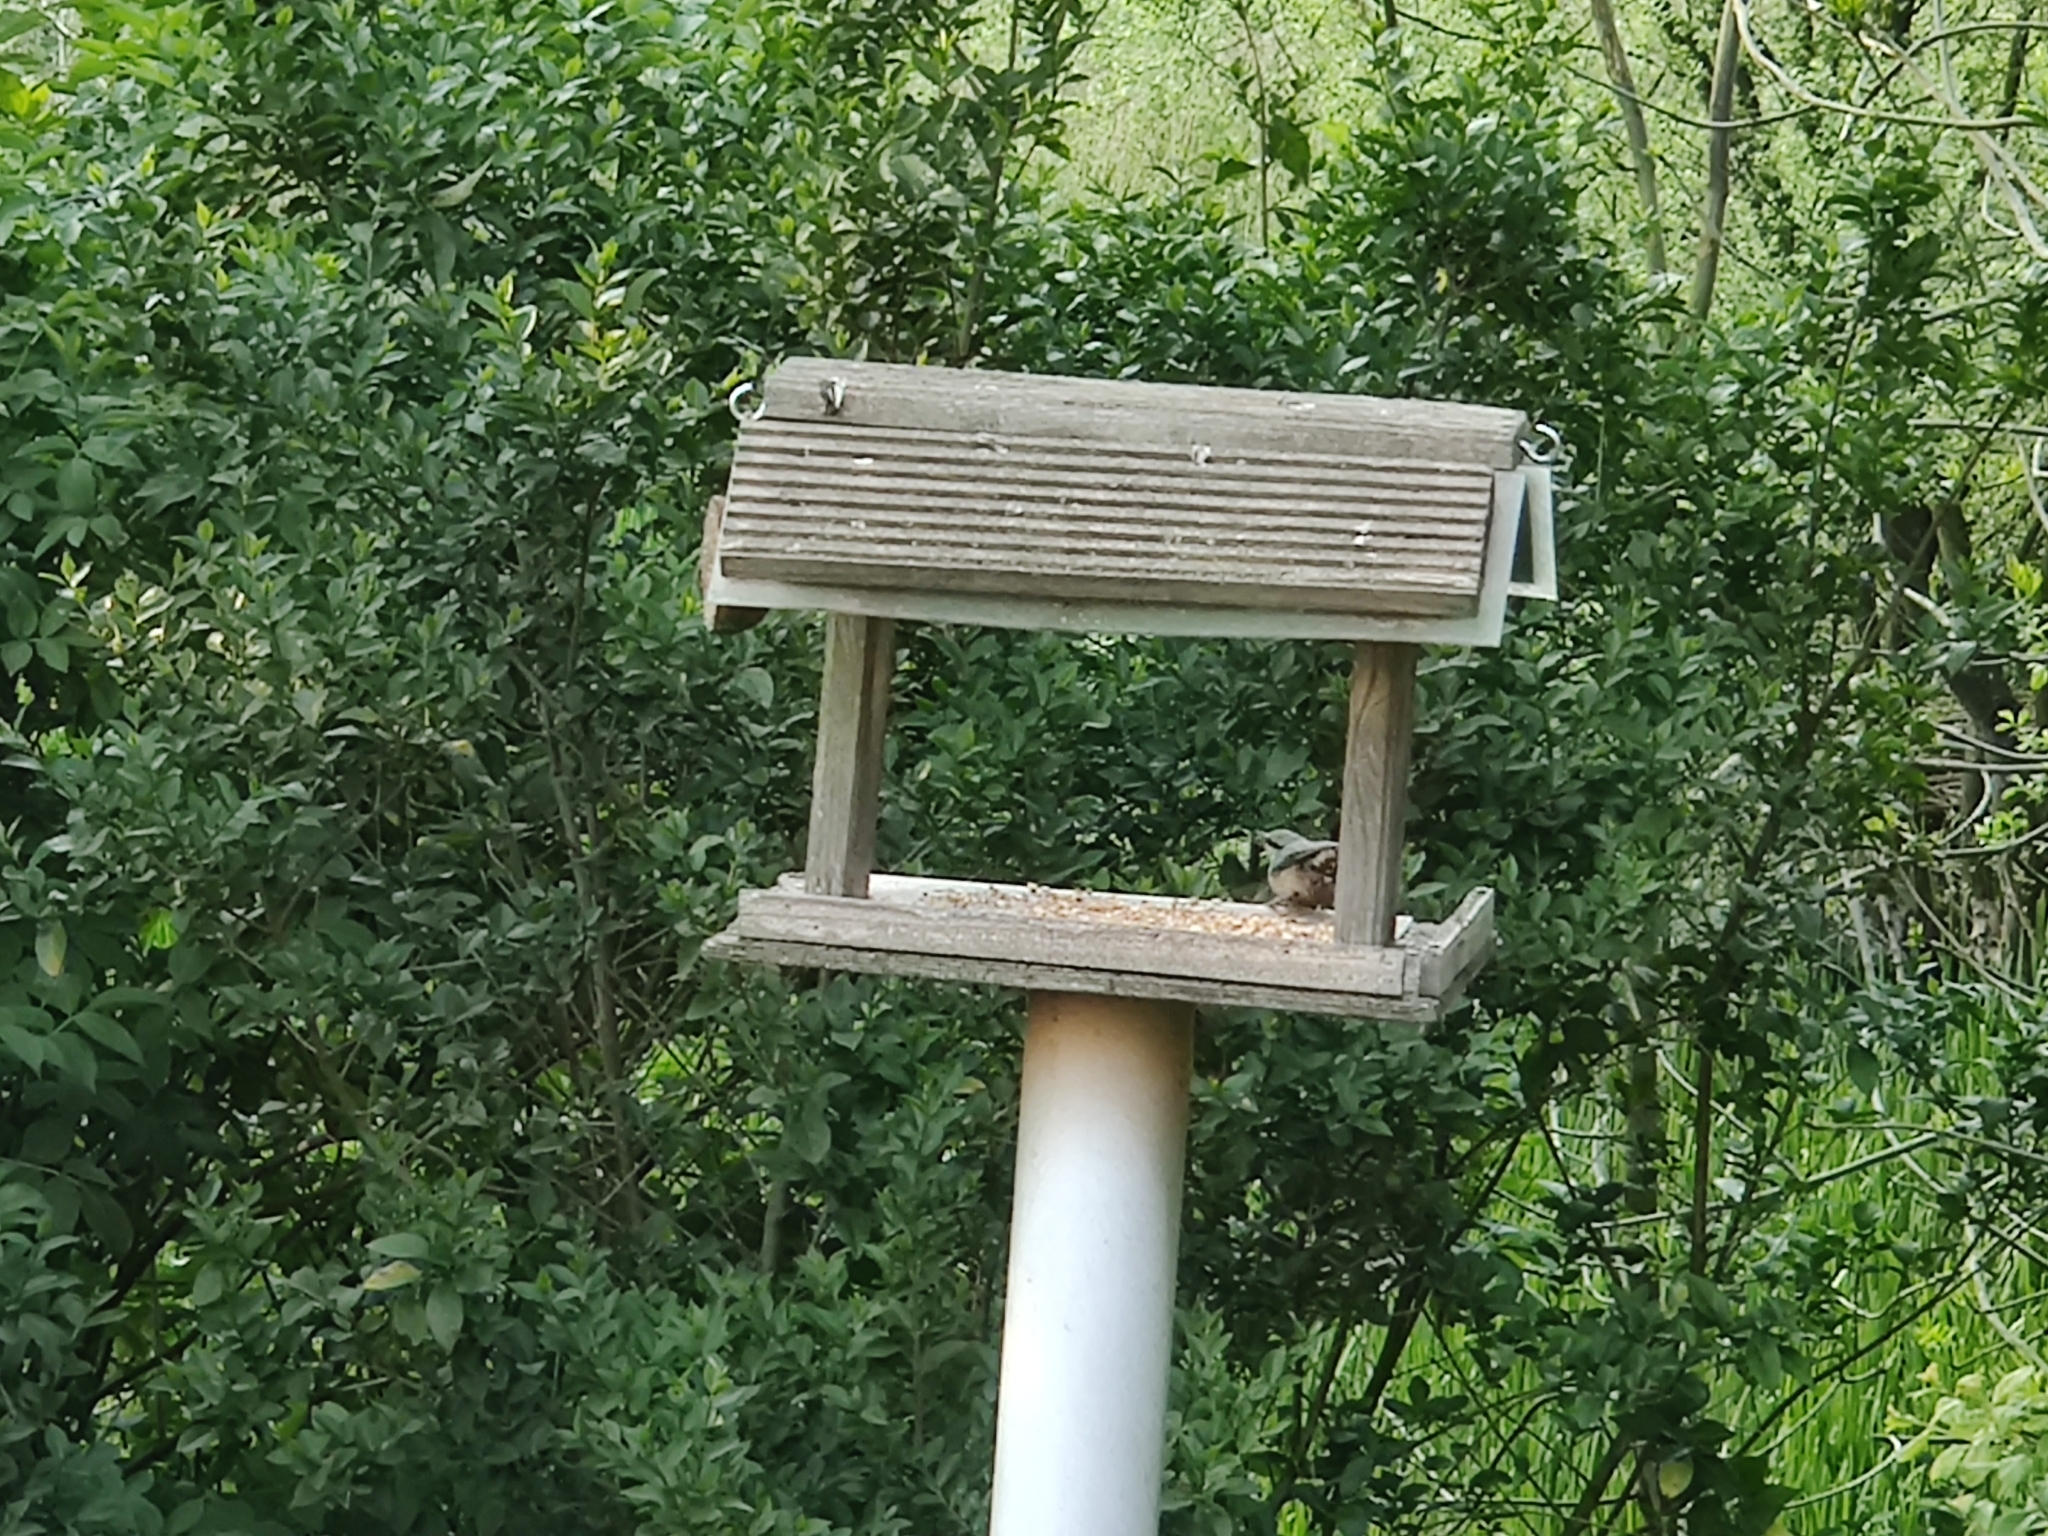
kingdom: Animalia
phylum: Chordata
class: Aves
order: Passeriformes
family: Sittidae
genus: Sitta
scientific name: Sitta europaea
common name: Eurasian nuthatch
